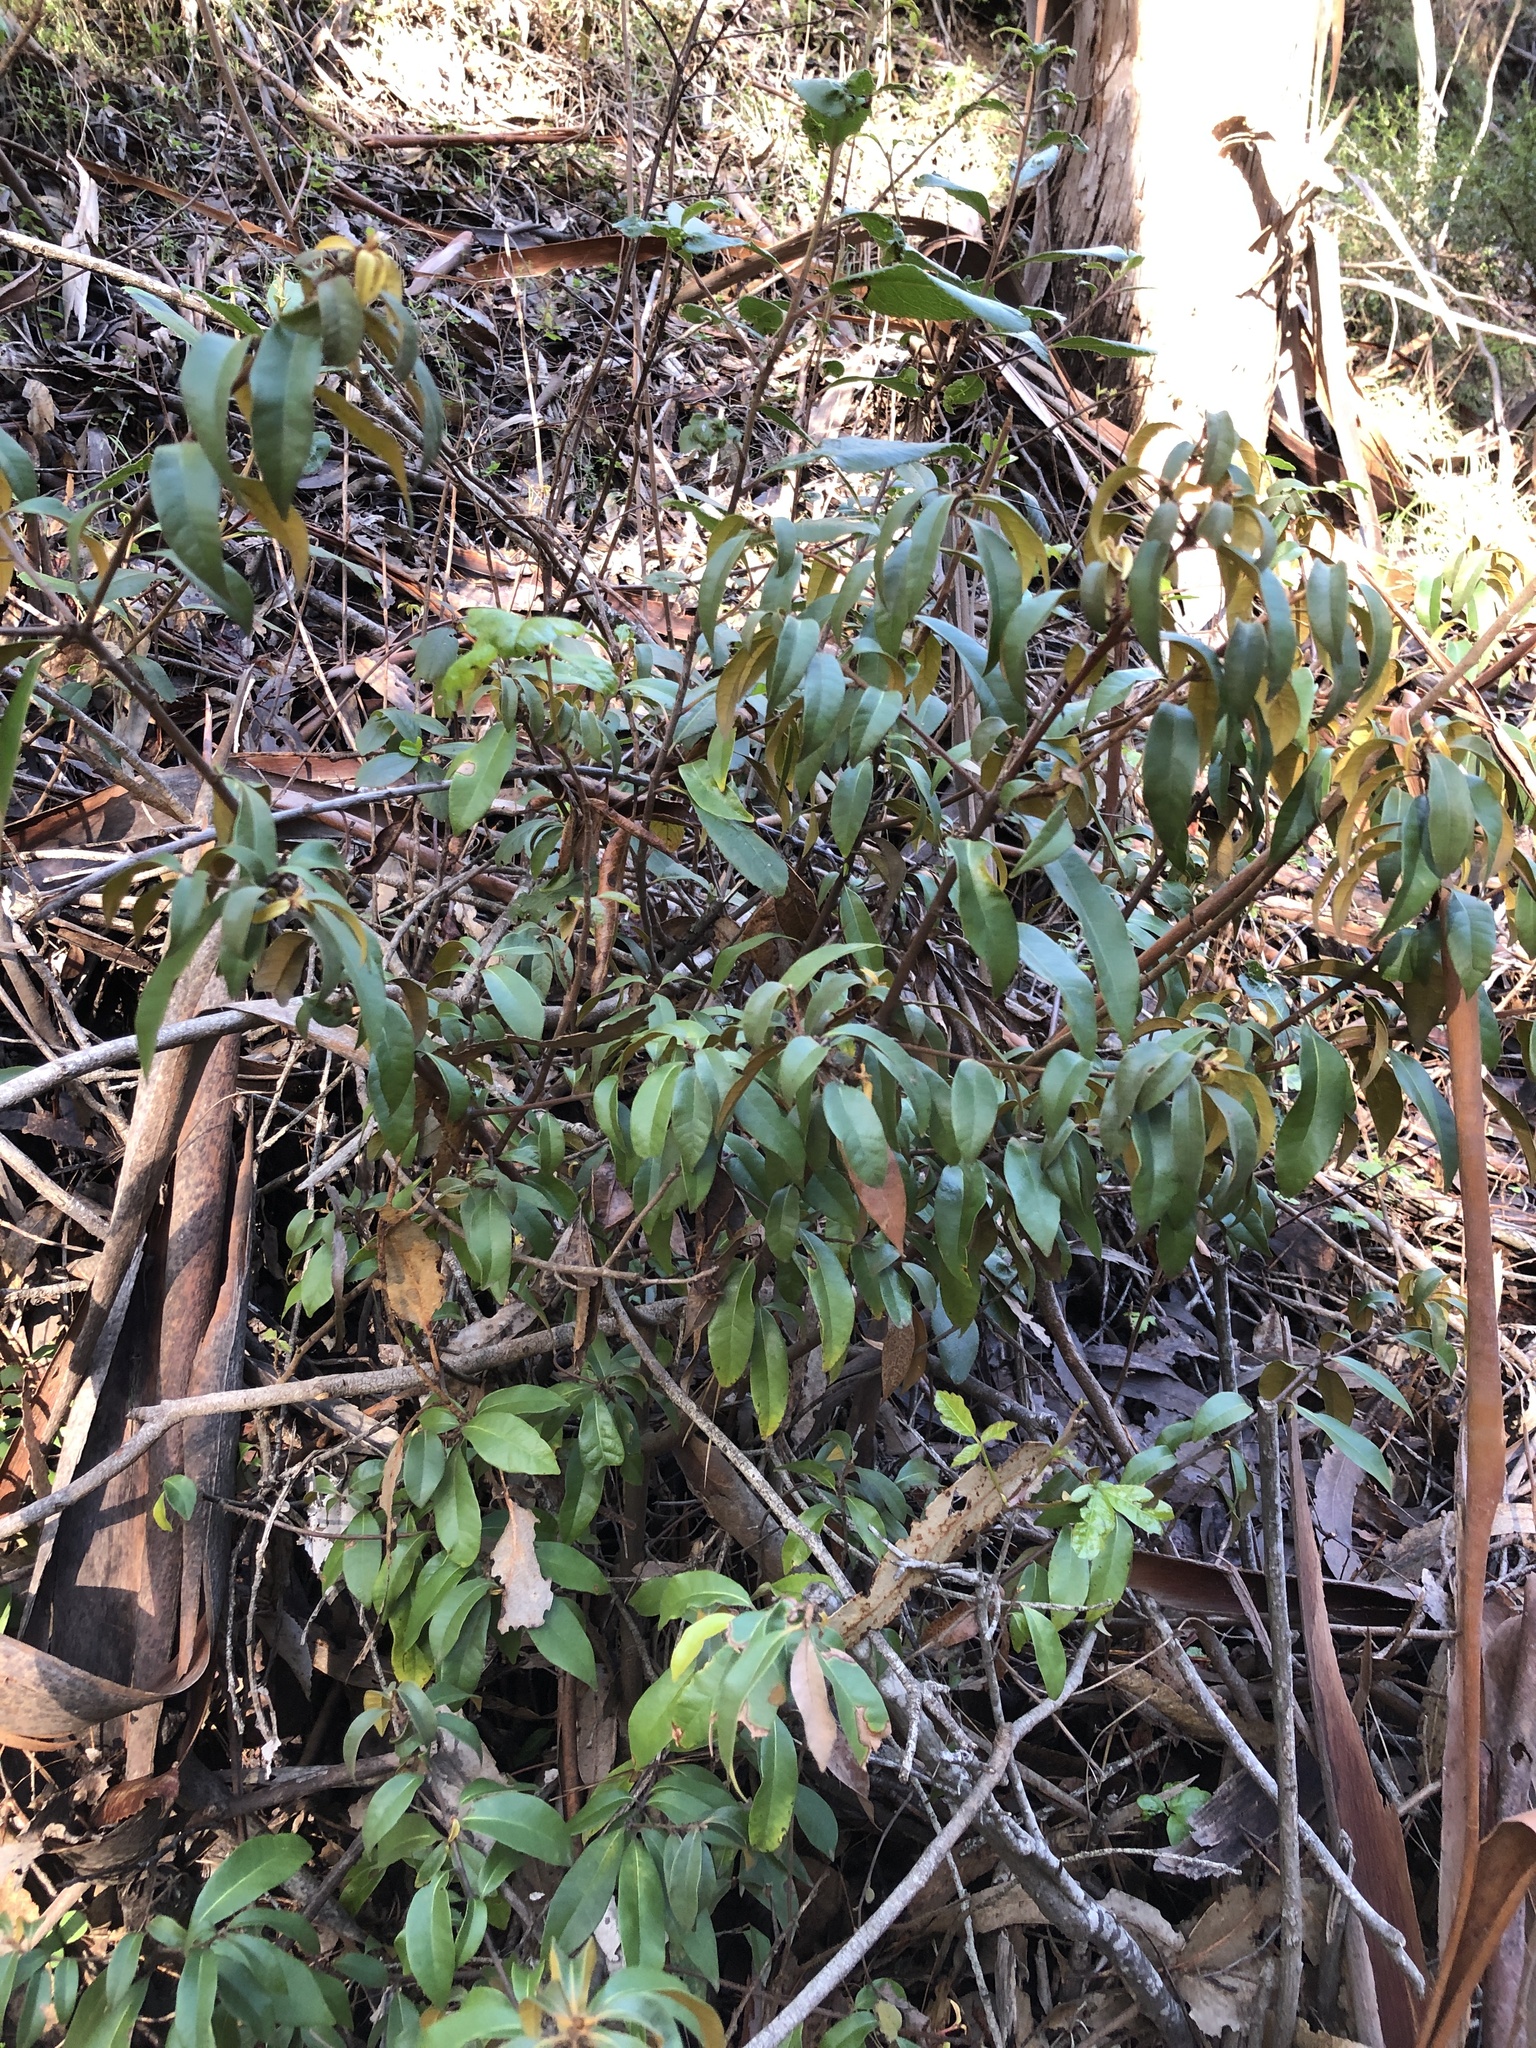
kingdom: Plantae
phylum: Tracheophyta
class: Magnoliopsida
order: Fagales
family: Fagaceae
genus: Chrysolepis
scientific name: Chrysolepis chrysophylla
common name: Giant chinquapin
